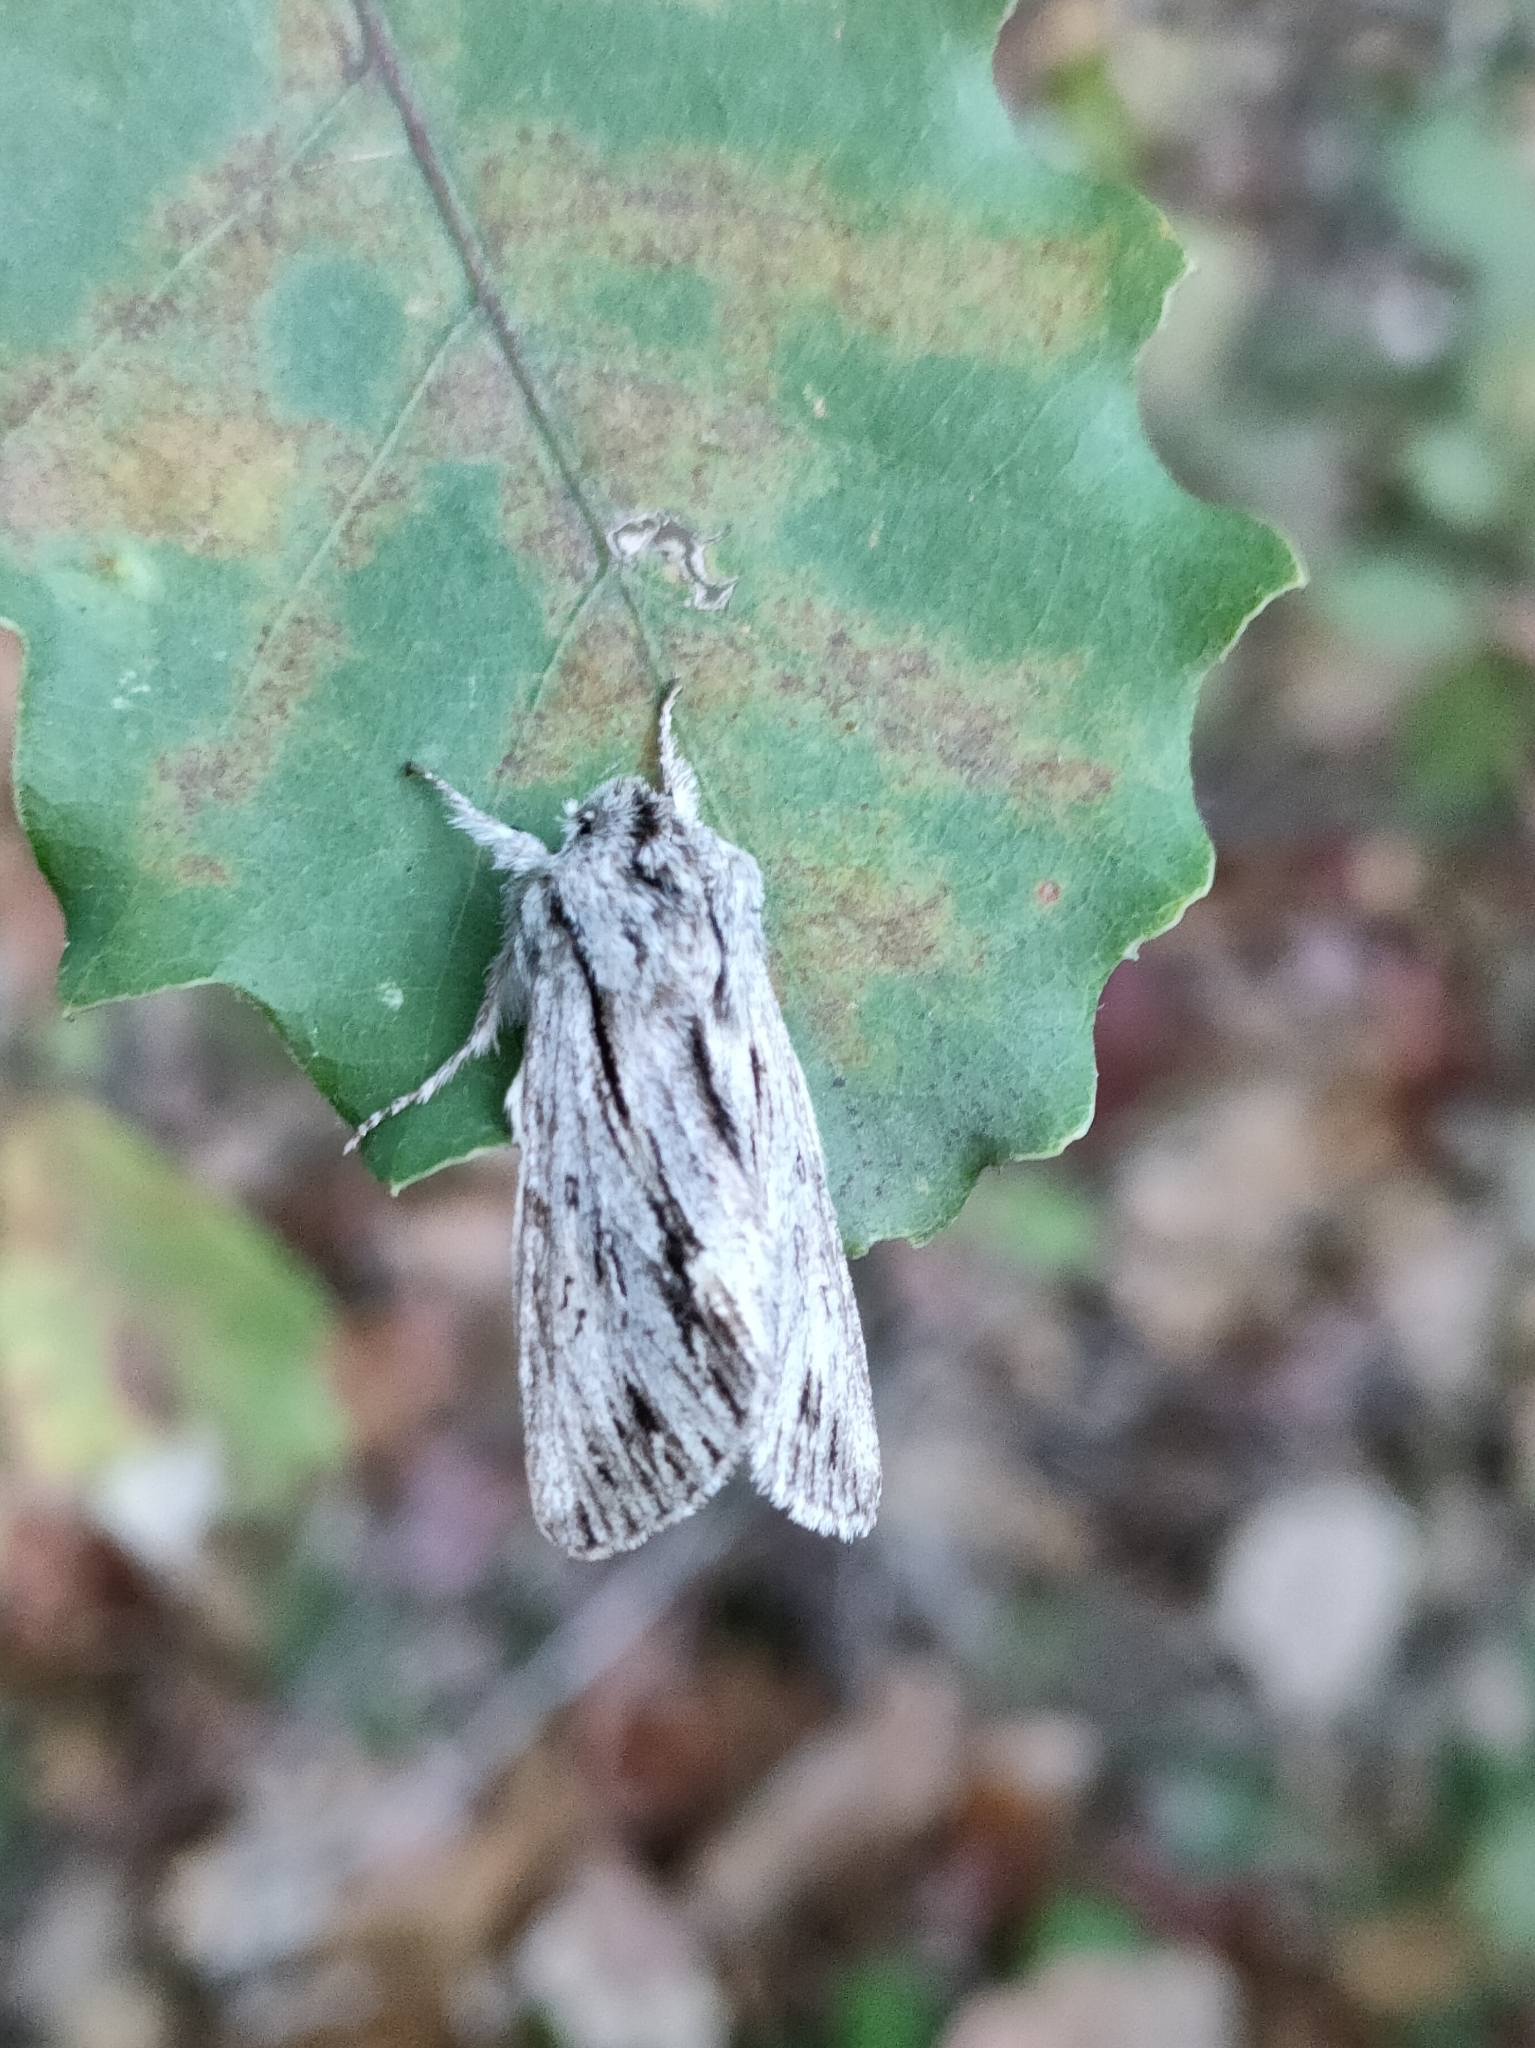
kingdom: Animalia
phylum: Arthropoda
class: Insecta
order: Lepidoptera
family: Noctuidae
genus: Asteroscopus
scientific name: Asteroscopus sphinx
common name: The sprawler
